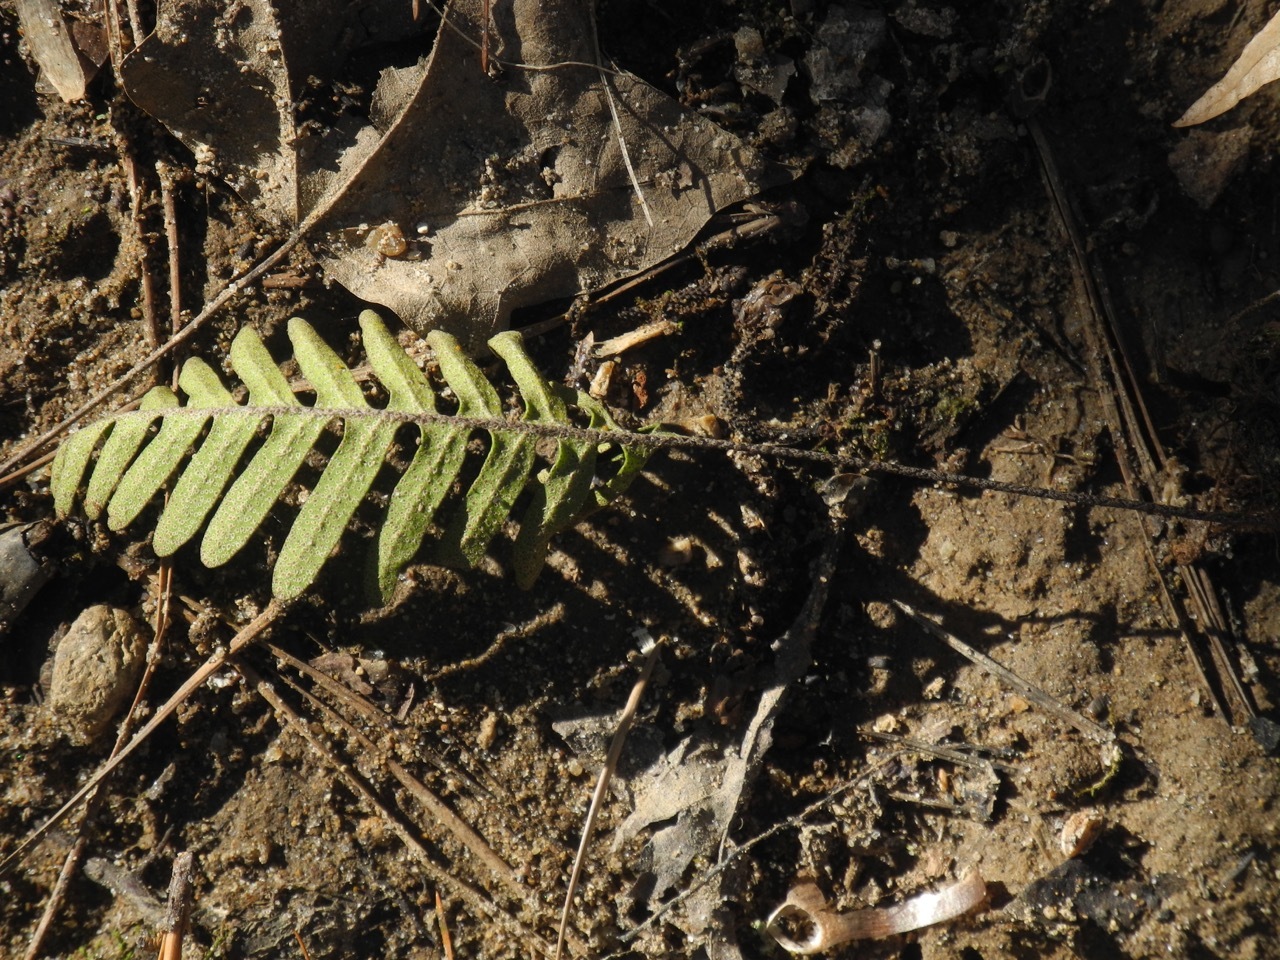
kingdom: Plantae
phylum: Tracheophyta
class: Polypodiopsida
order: Polypodiales
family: Polypodiaceae
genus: Pleopeltis
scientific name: Pleopeltis michauxiana
